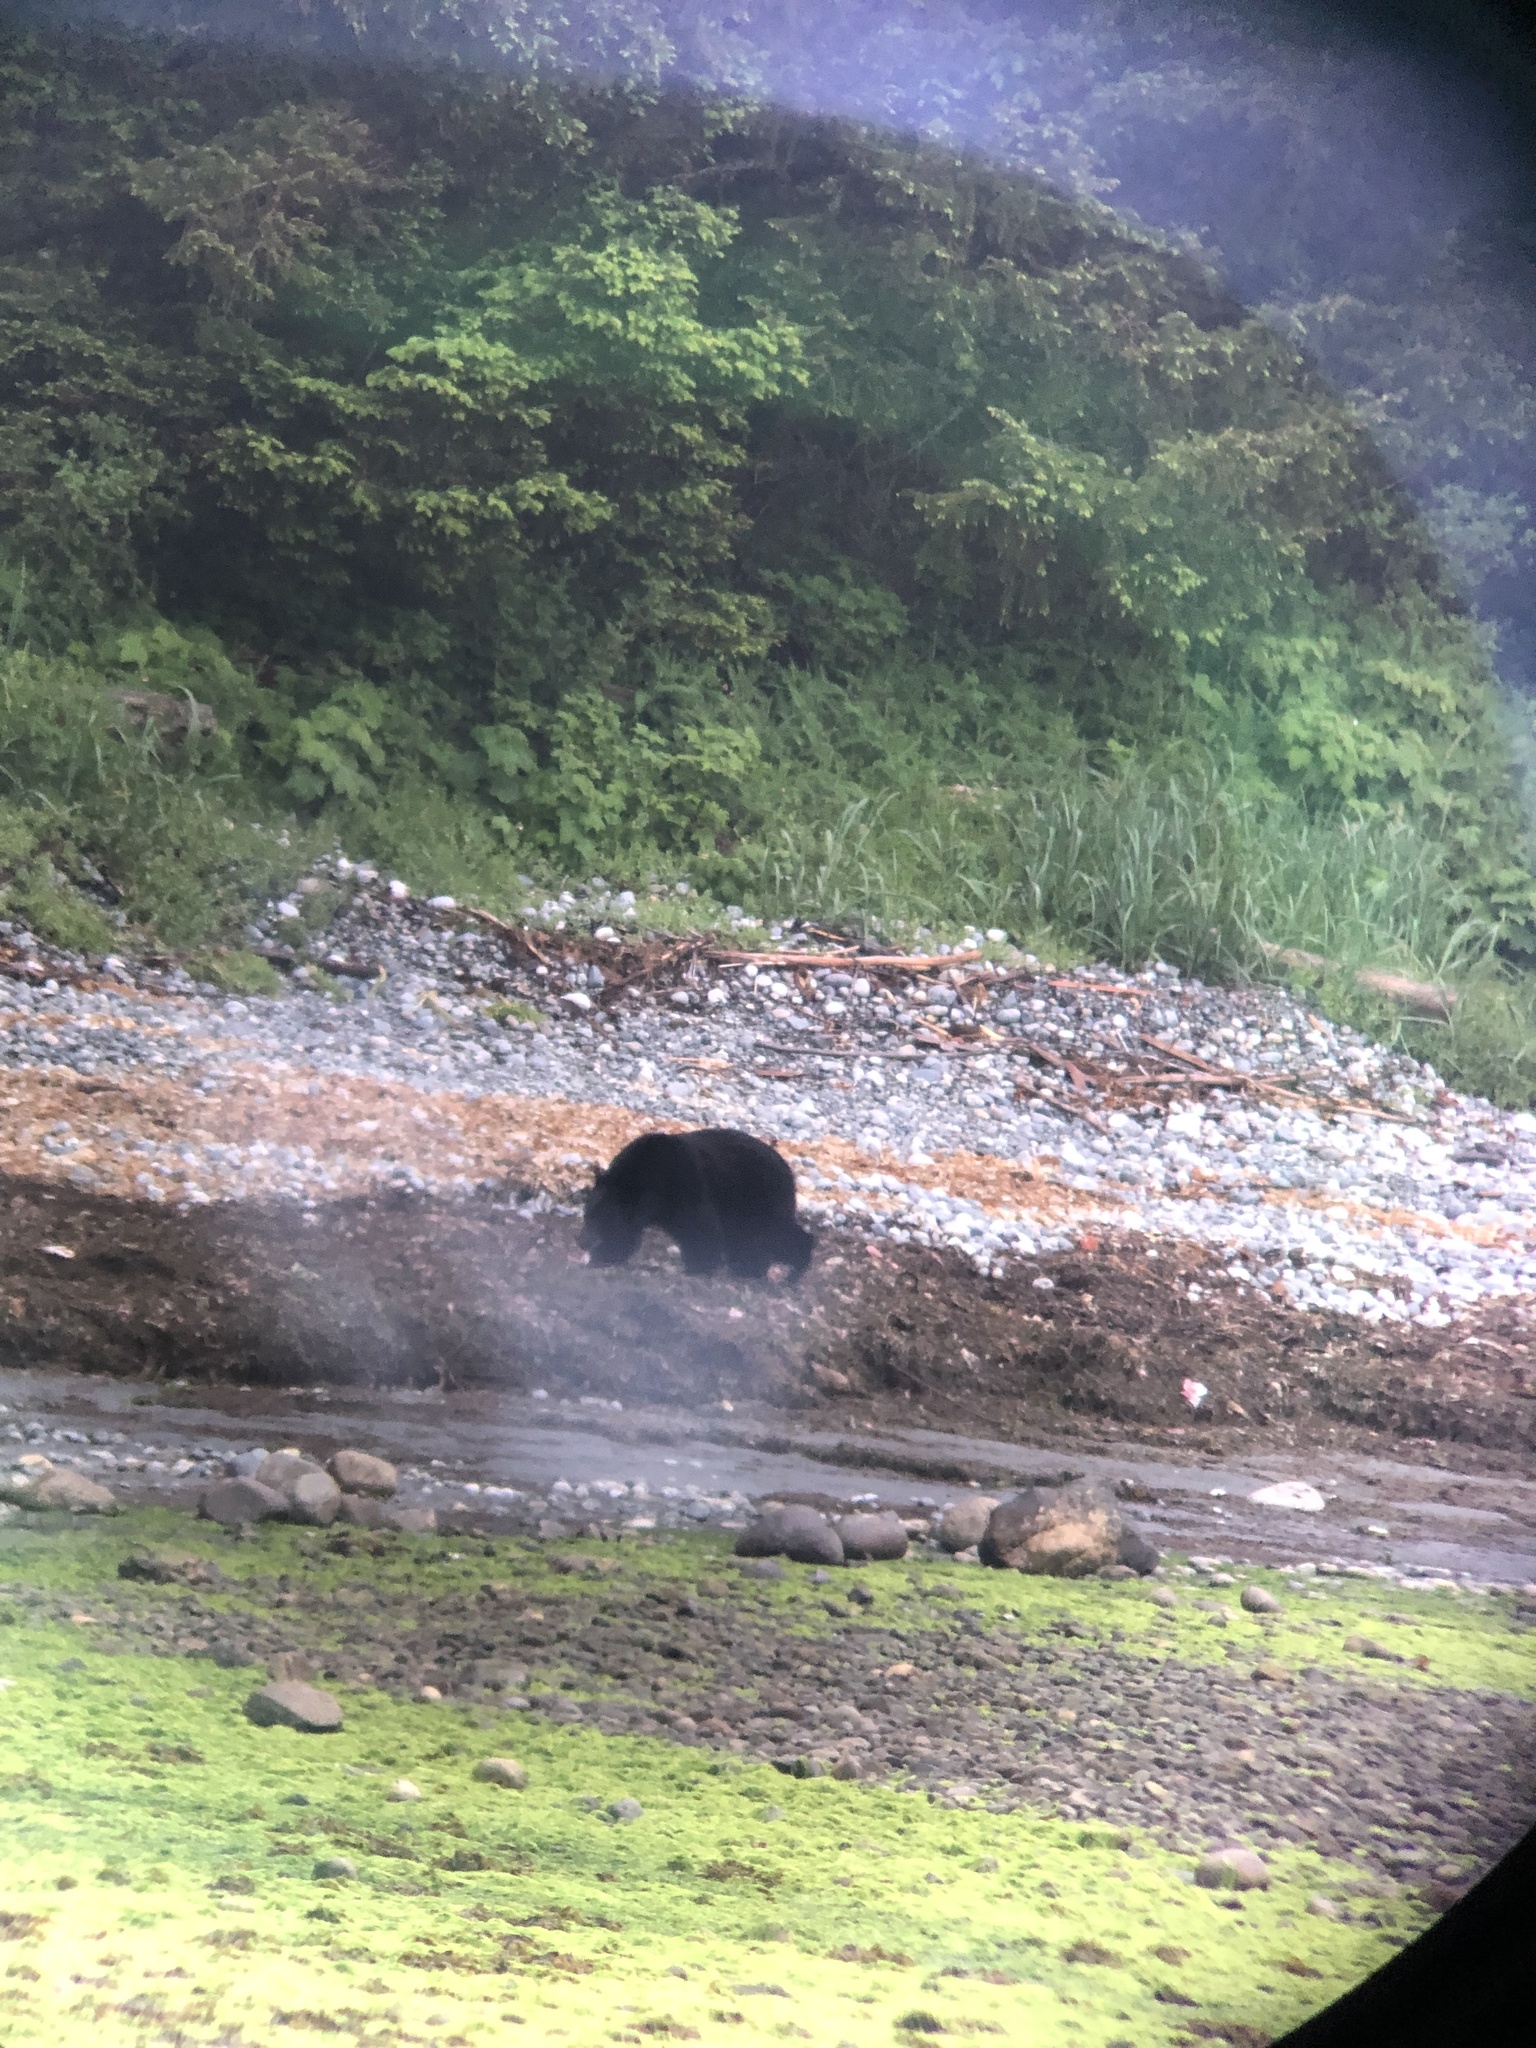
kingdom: Animalia
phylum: Chordata
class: Mammalia
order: Carnivora
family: Ursidae
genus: Ursus
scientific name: Ursus americanus
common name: American black bear
